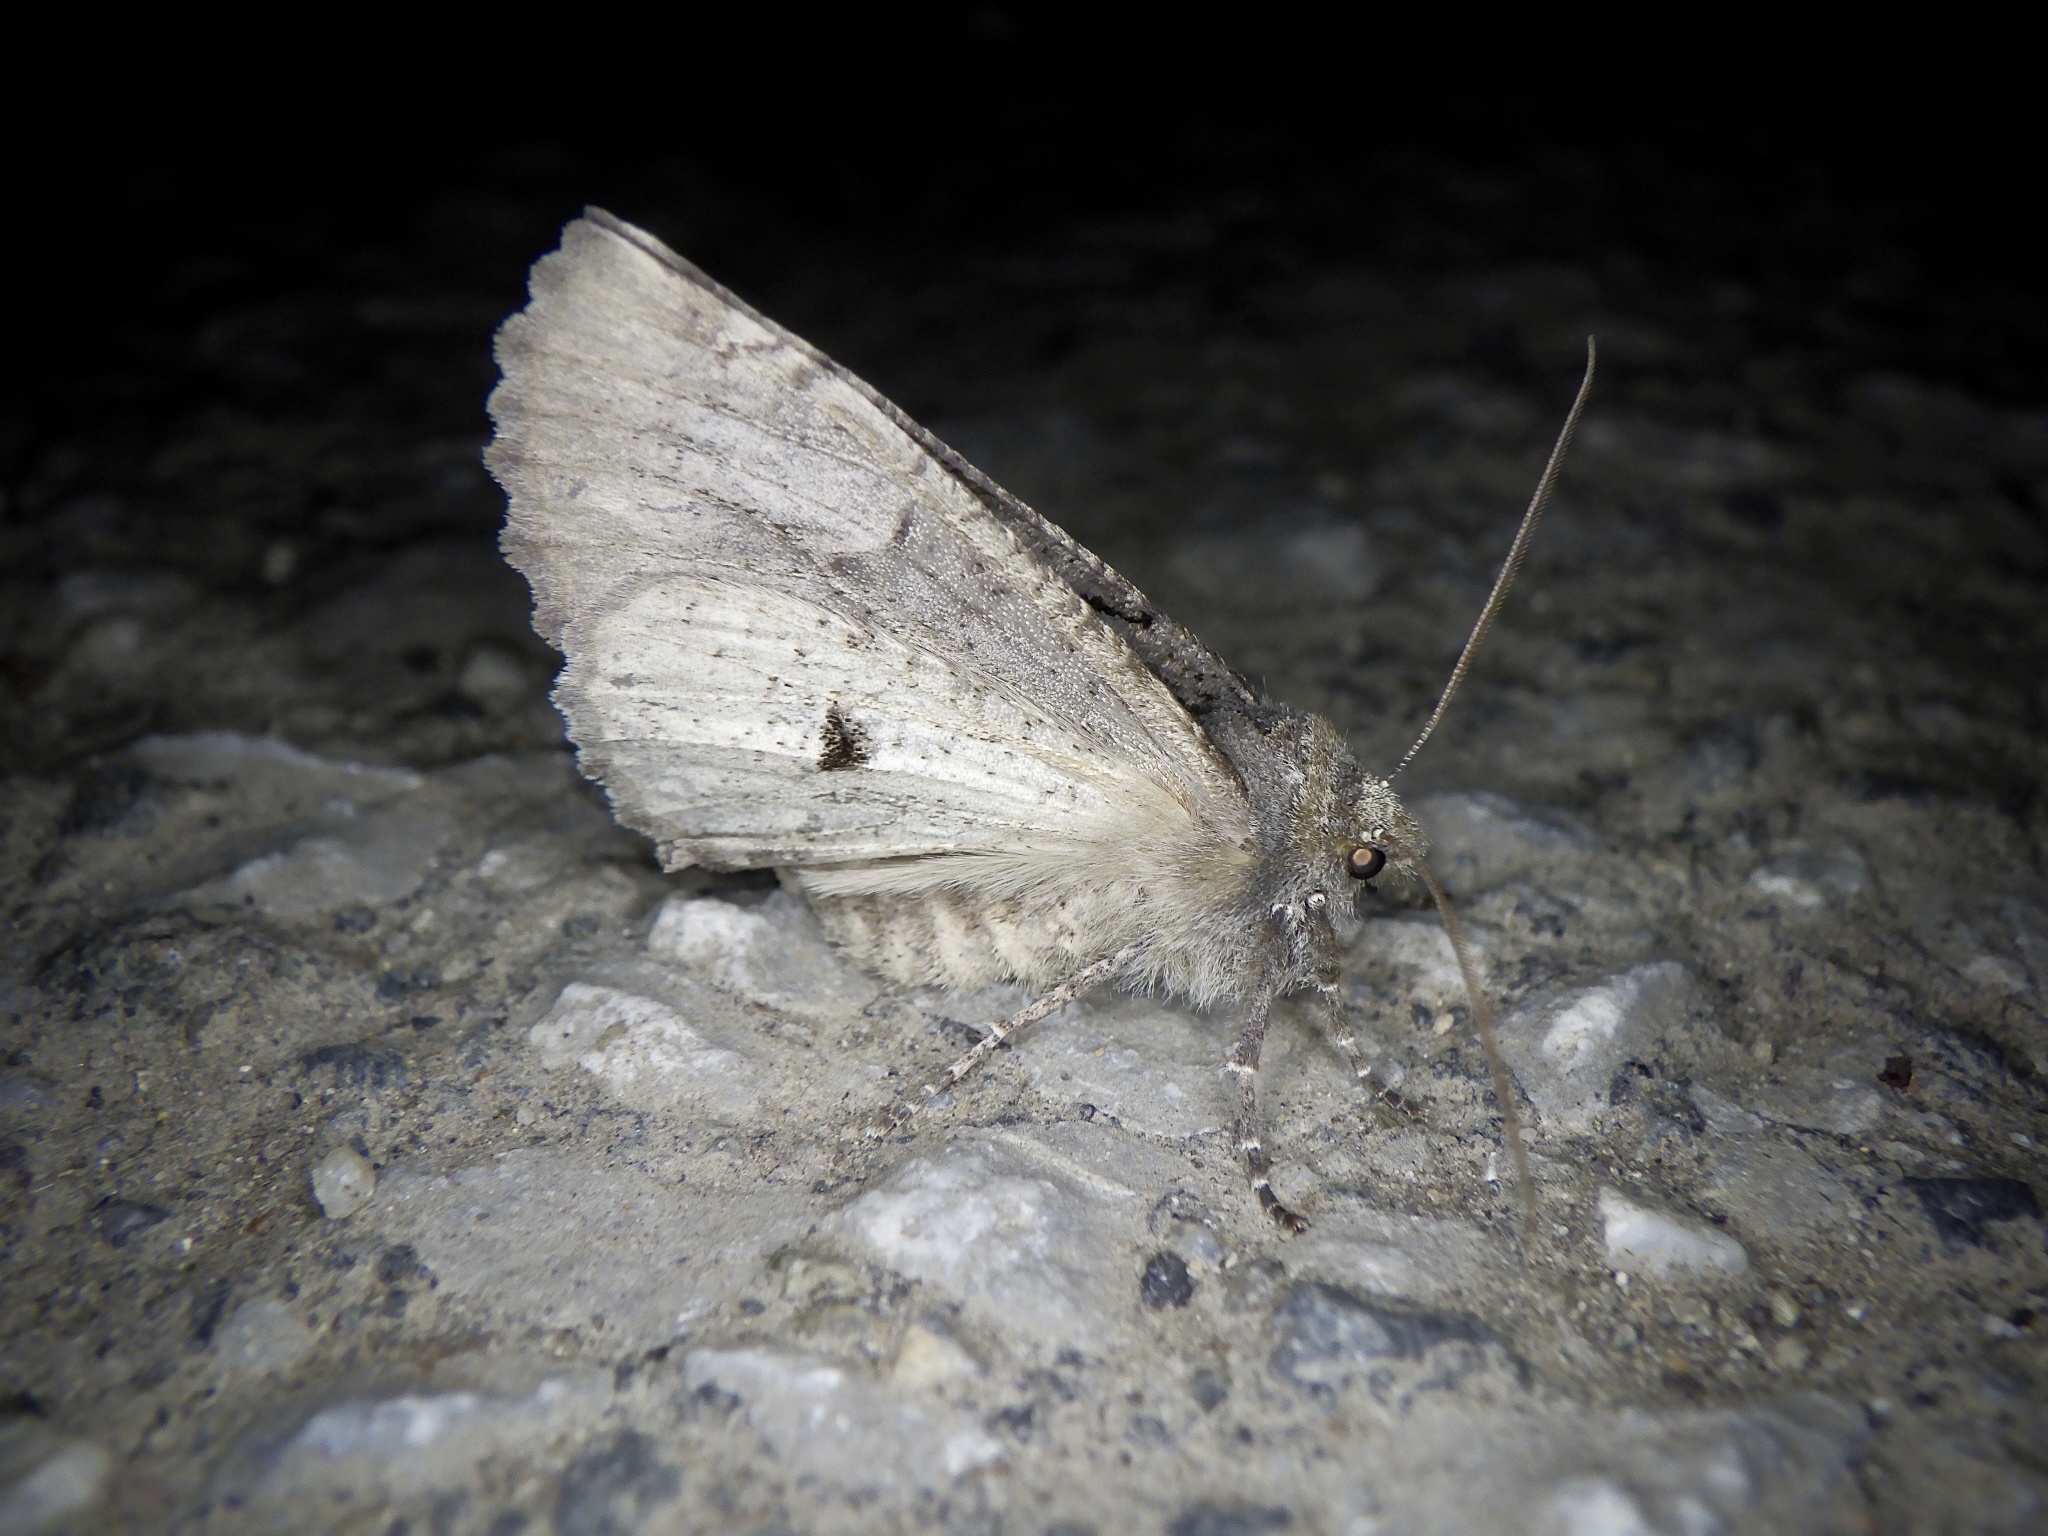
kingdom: Animalia
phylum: Arthropoda
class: Insecta
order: Lepidoptera
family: Geometridae
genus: Pachyligia
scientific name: Pachyligia dolosa
